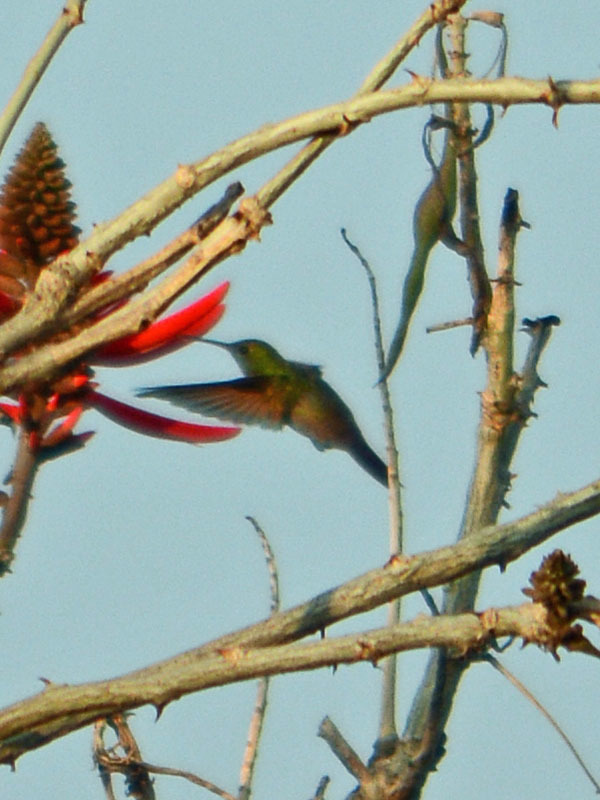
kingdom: Animalia
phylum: Chordata
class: Aves
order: Apodiformes
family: Trochilidae
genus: Saucerottia
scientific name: Saucerottia beryllina
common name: Berylline hummingbird
